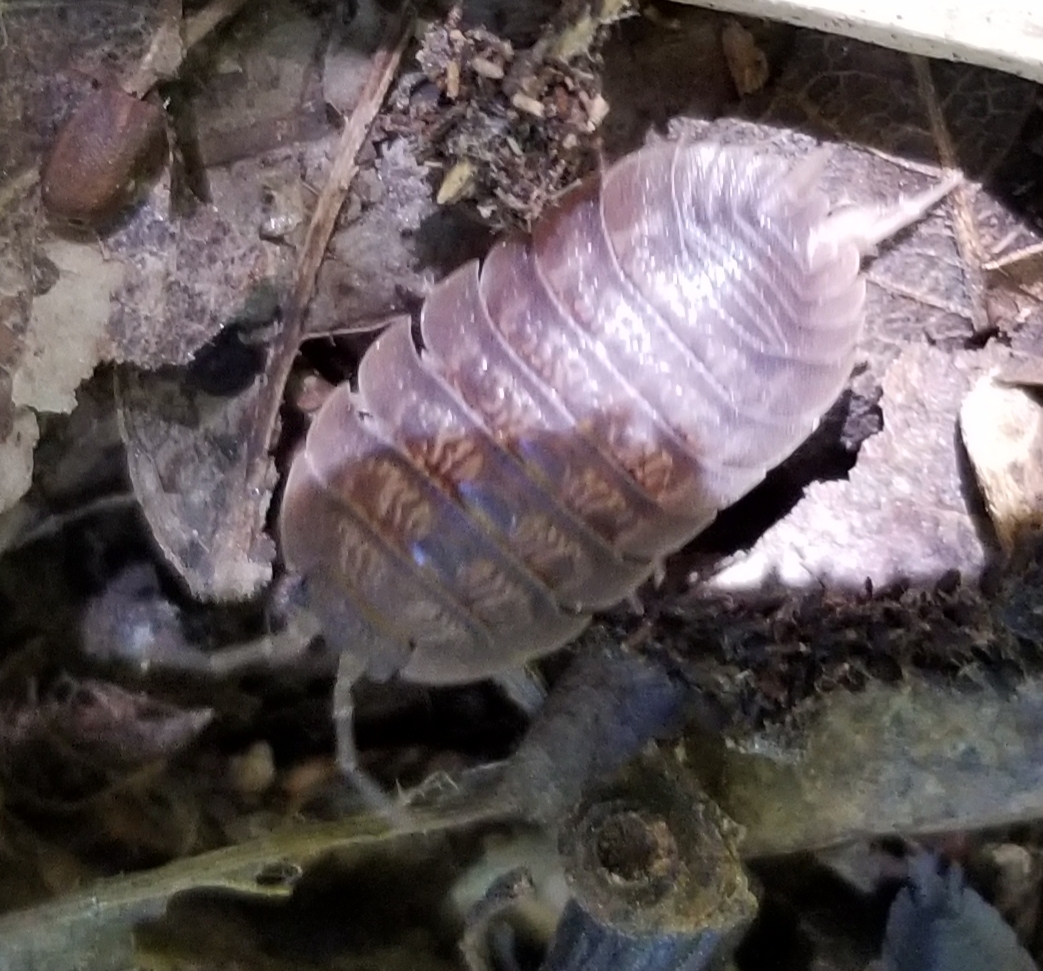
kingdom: Animalia
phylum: Arthropoda
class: Malacostraca
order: Isopoda
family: Porcellionidae
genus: Porcellio
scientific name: Porcellio dilatatus
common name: Isopod
